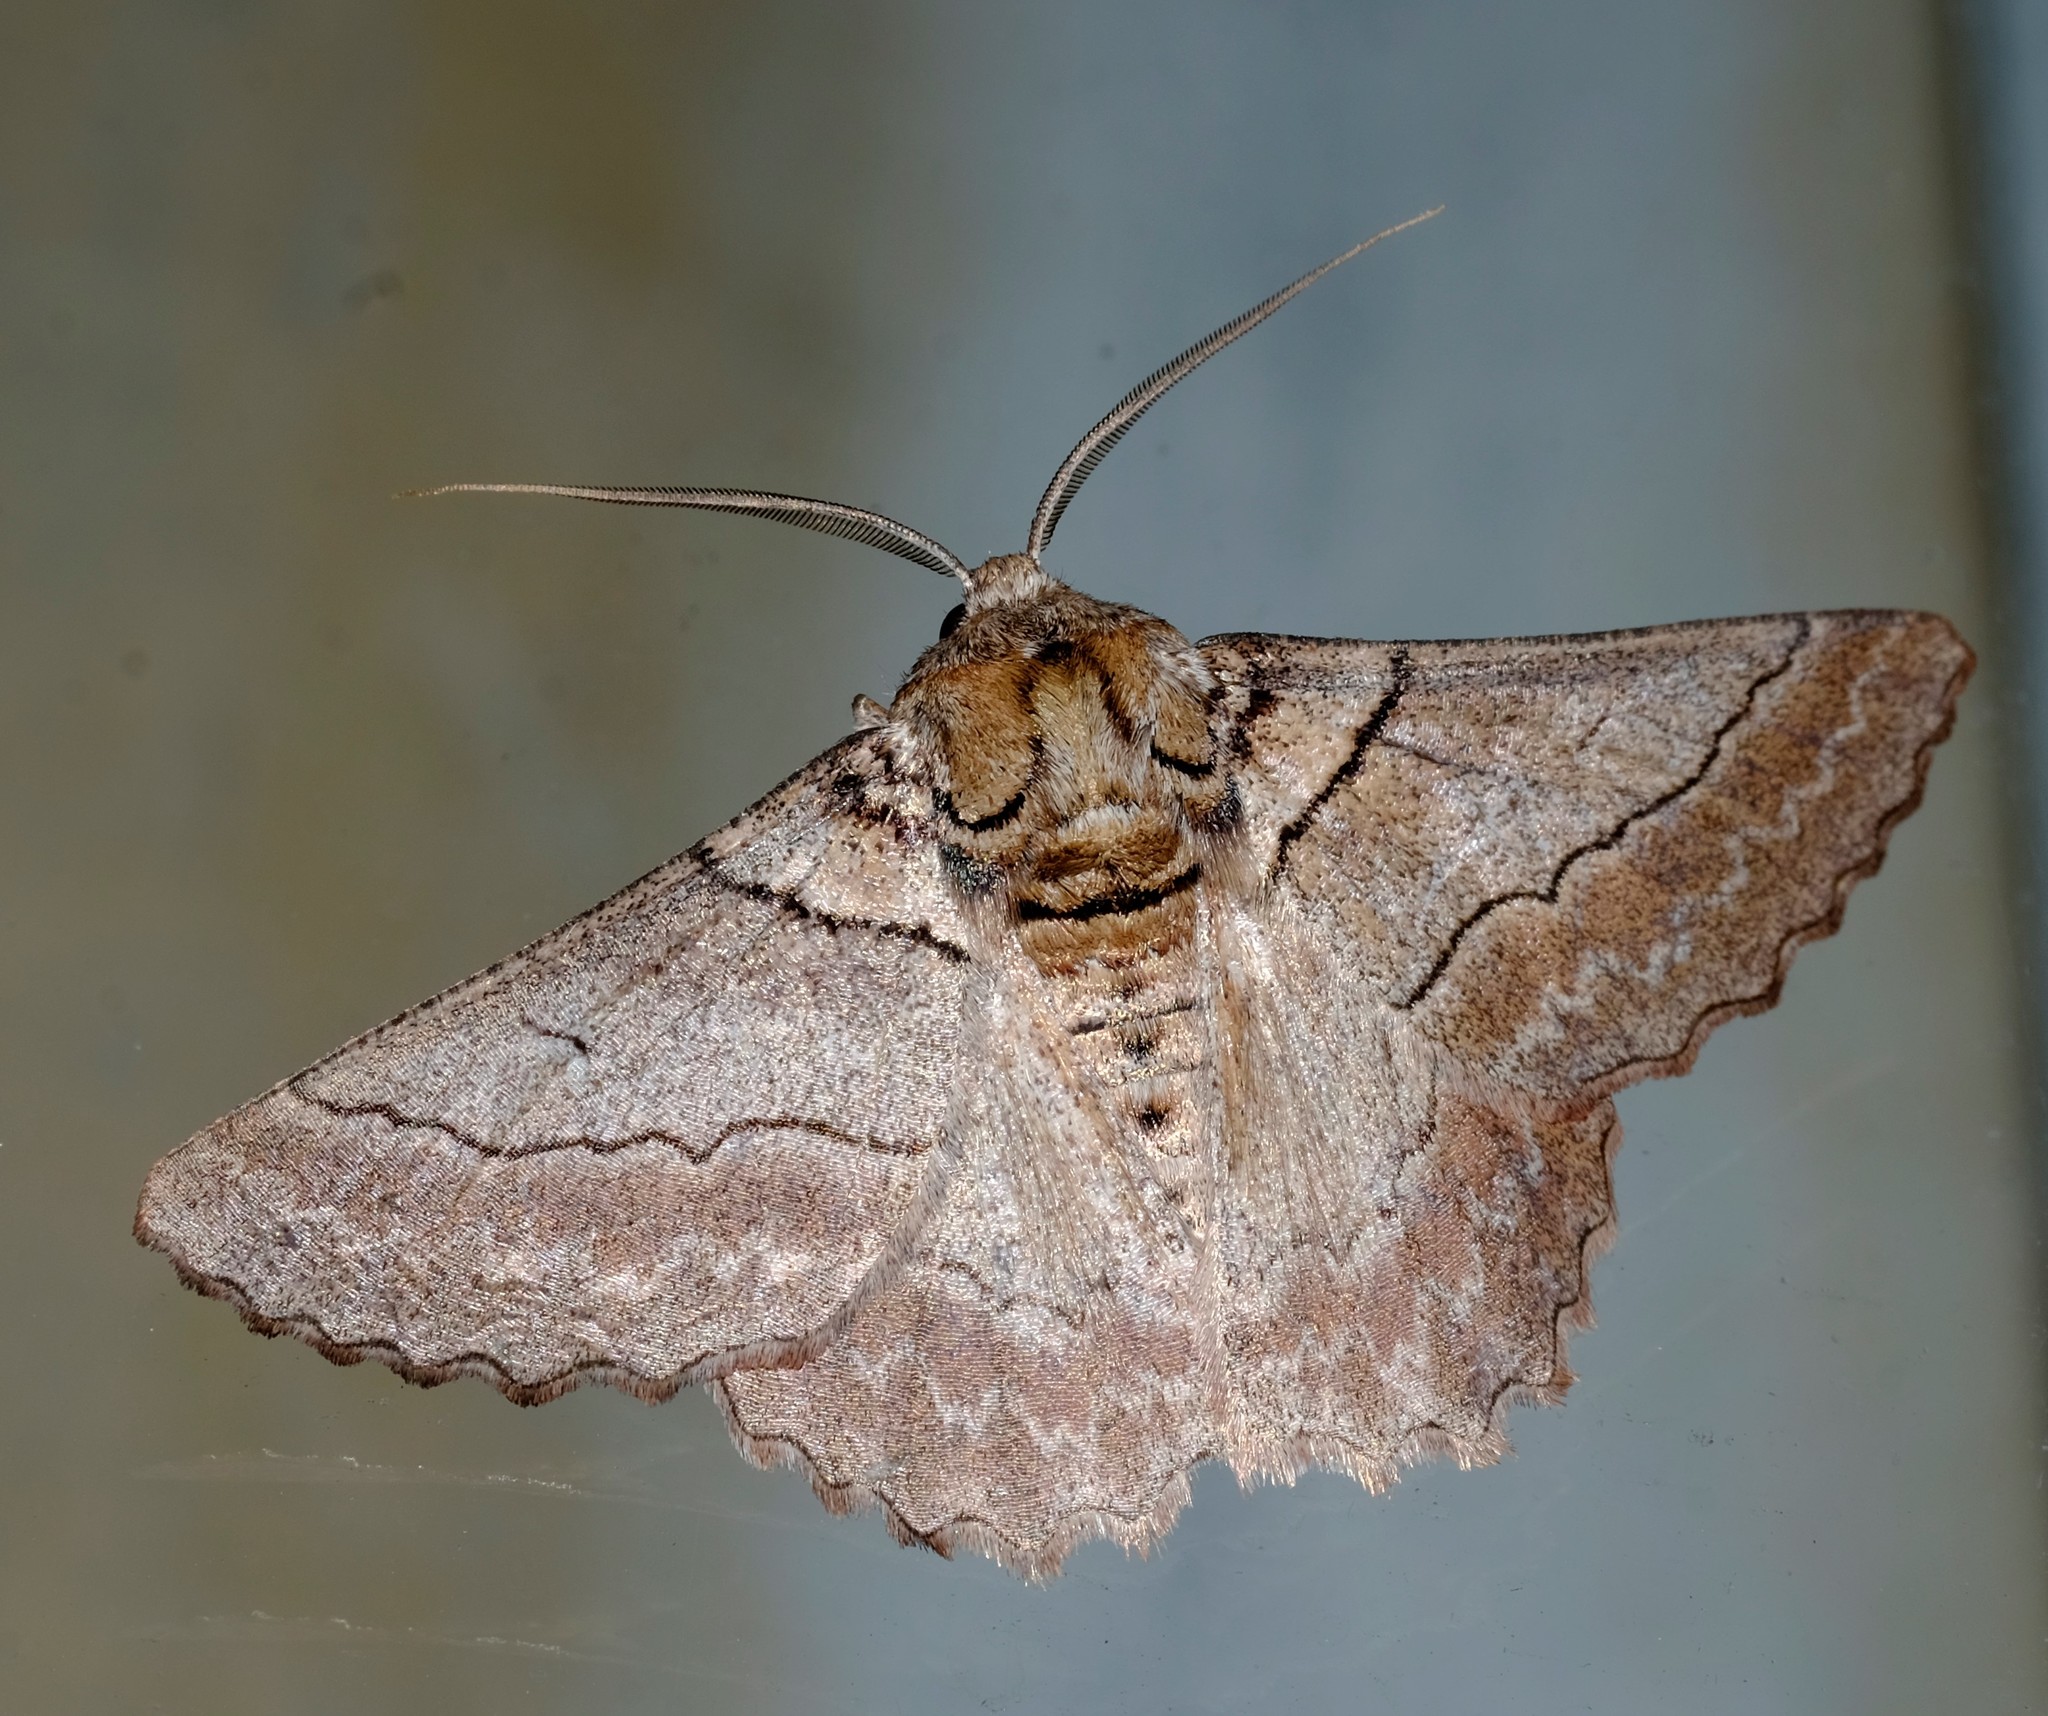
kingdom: Animalia
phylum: Arthropoda
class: Insecta
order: Lepidoptera
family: Geometridae
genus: Hypobapta
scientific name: Hypobapta tachyhalotaria
